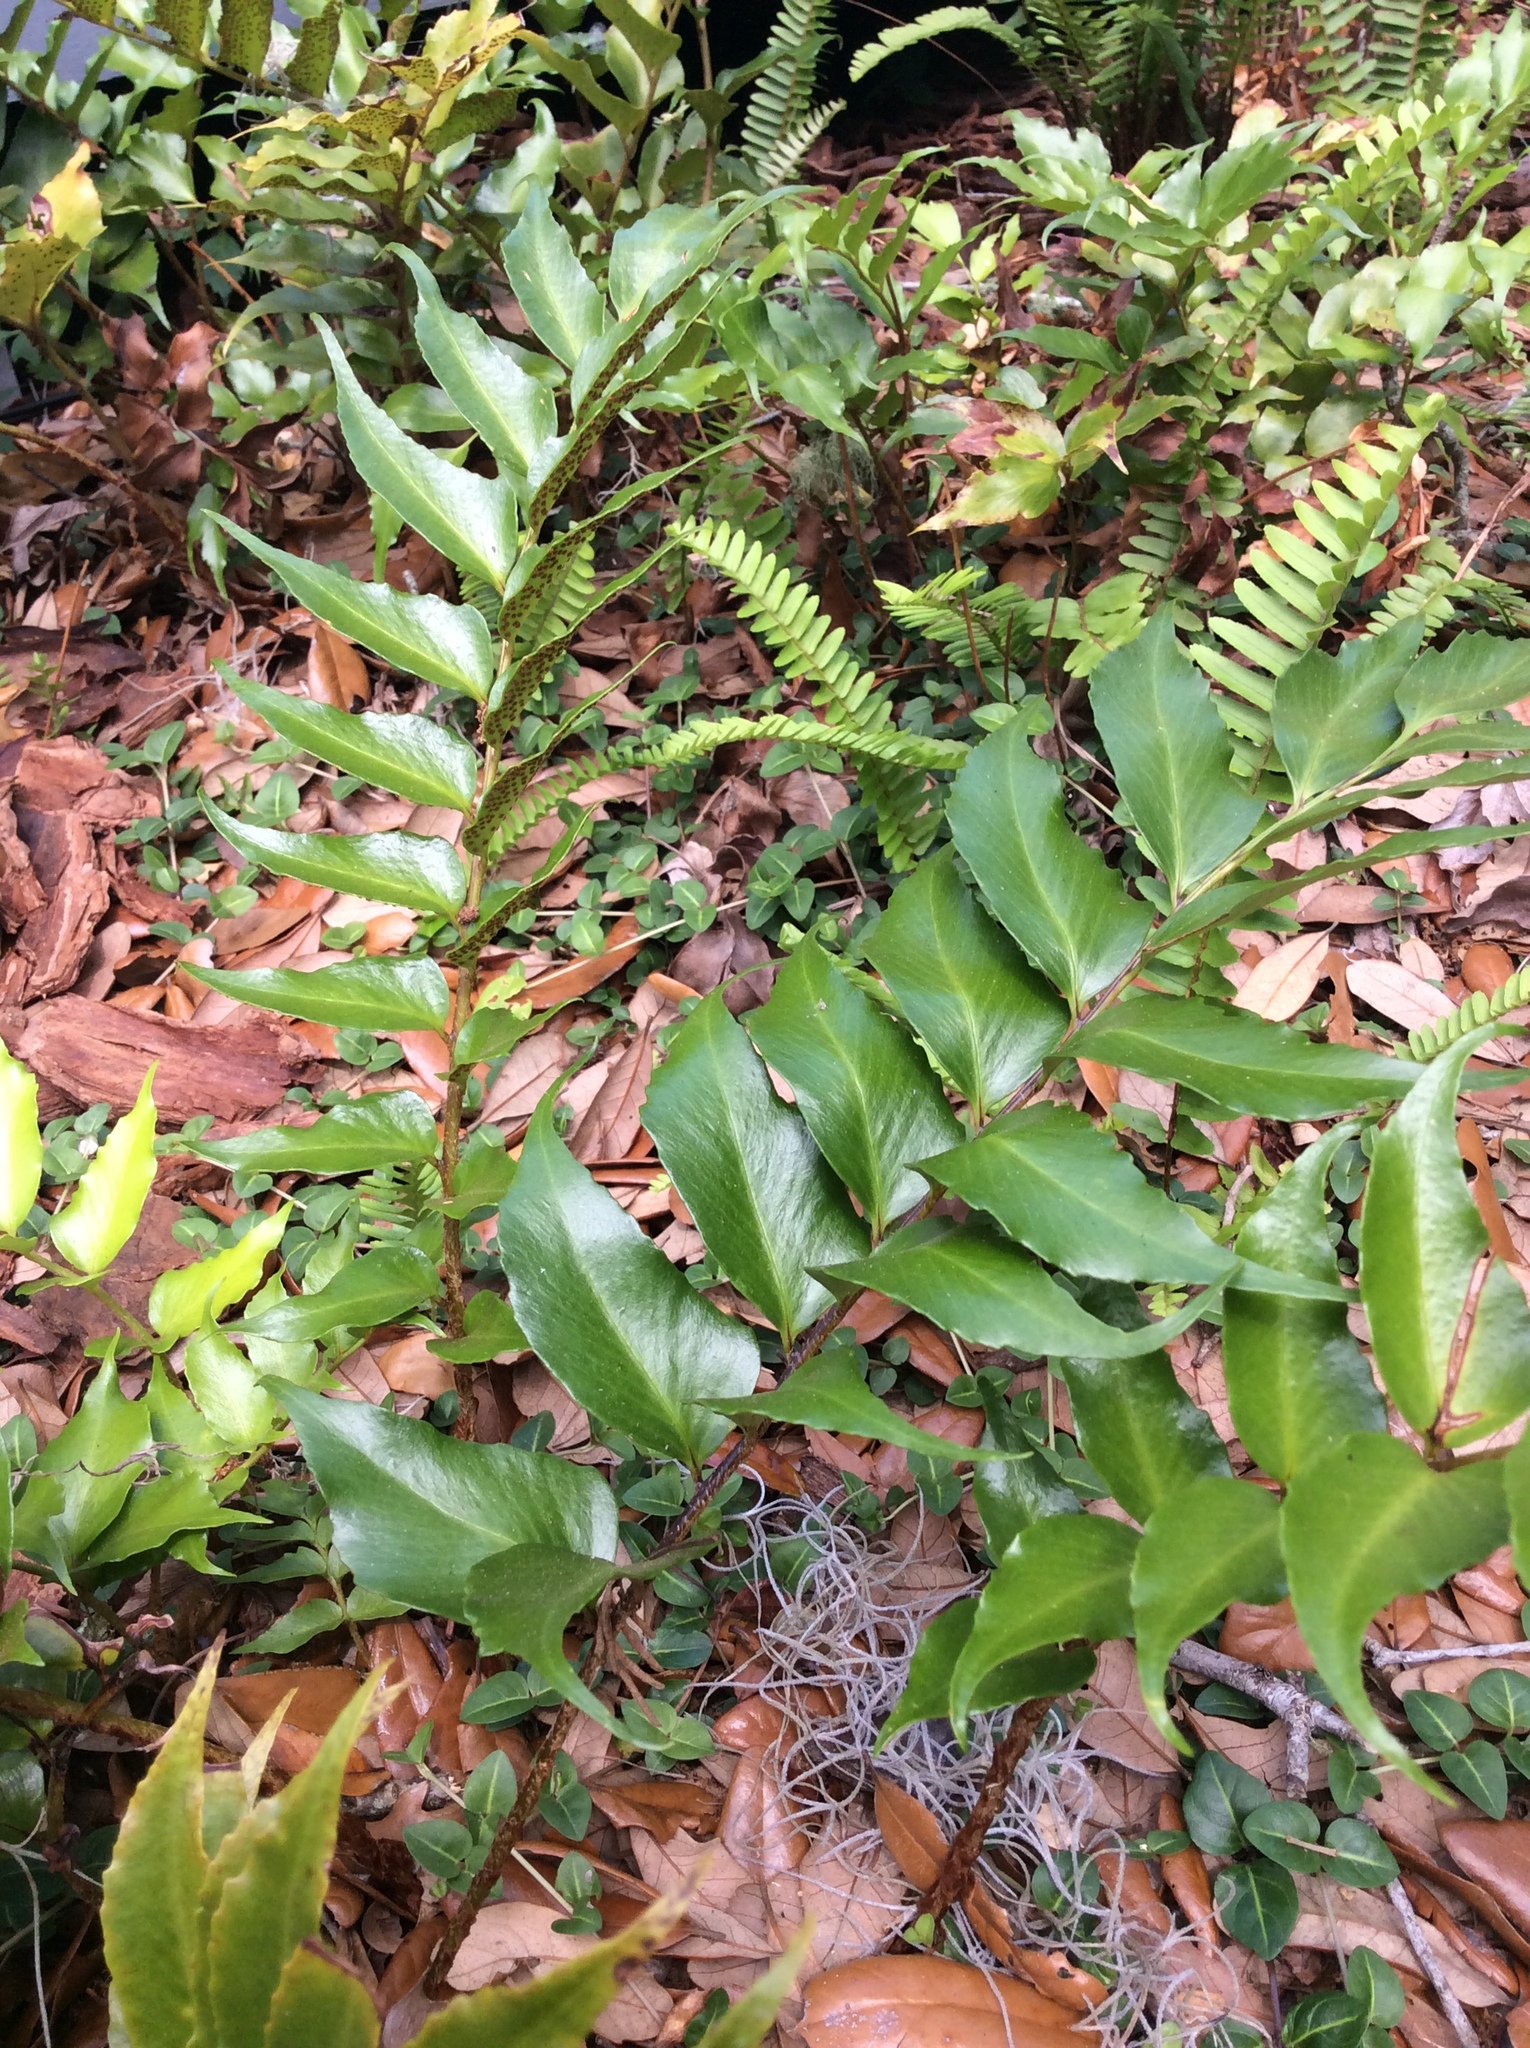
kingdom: Plantae
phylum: Tracheophyta
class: Polypodiopsida
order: Polypodiales
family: Dryopteridaceae
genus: Cyrtomium
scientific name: Cyrtomium falcatum
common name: House holly-fern
